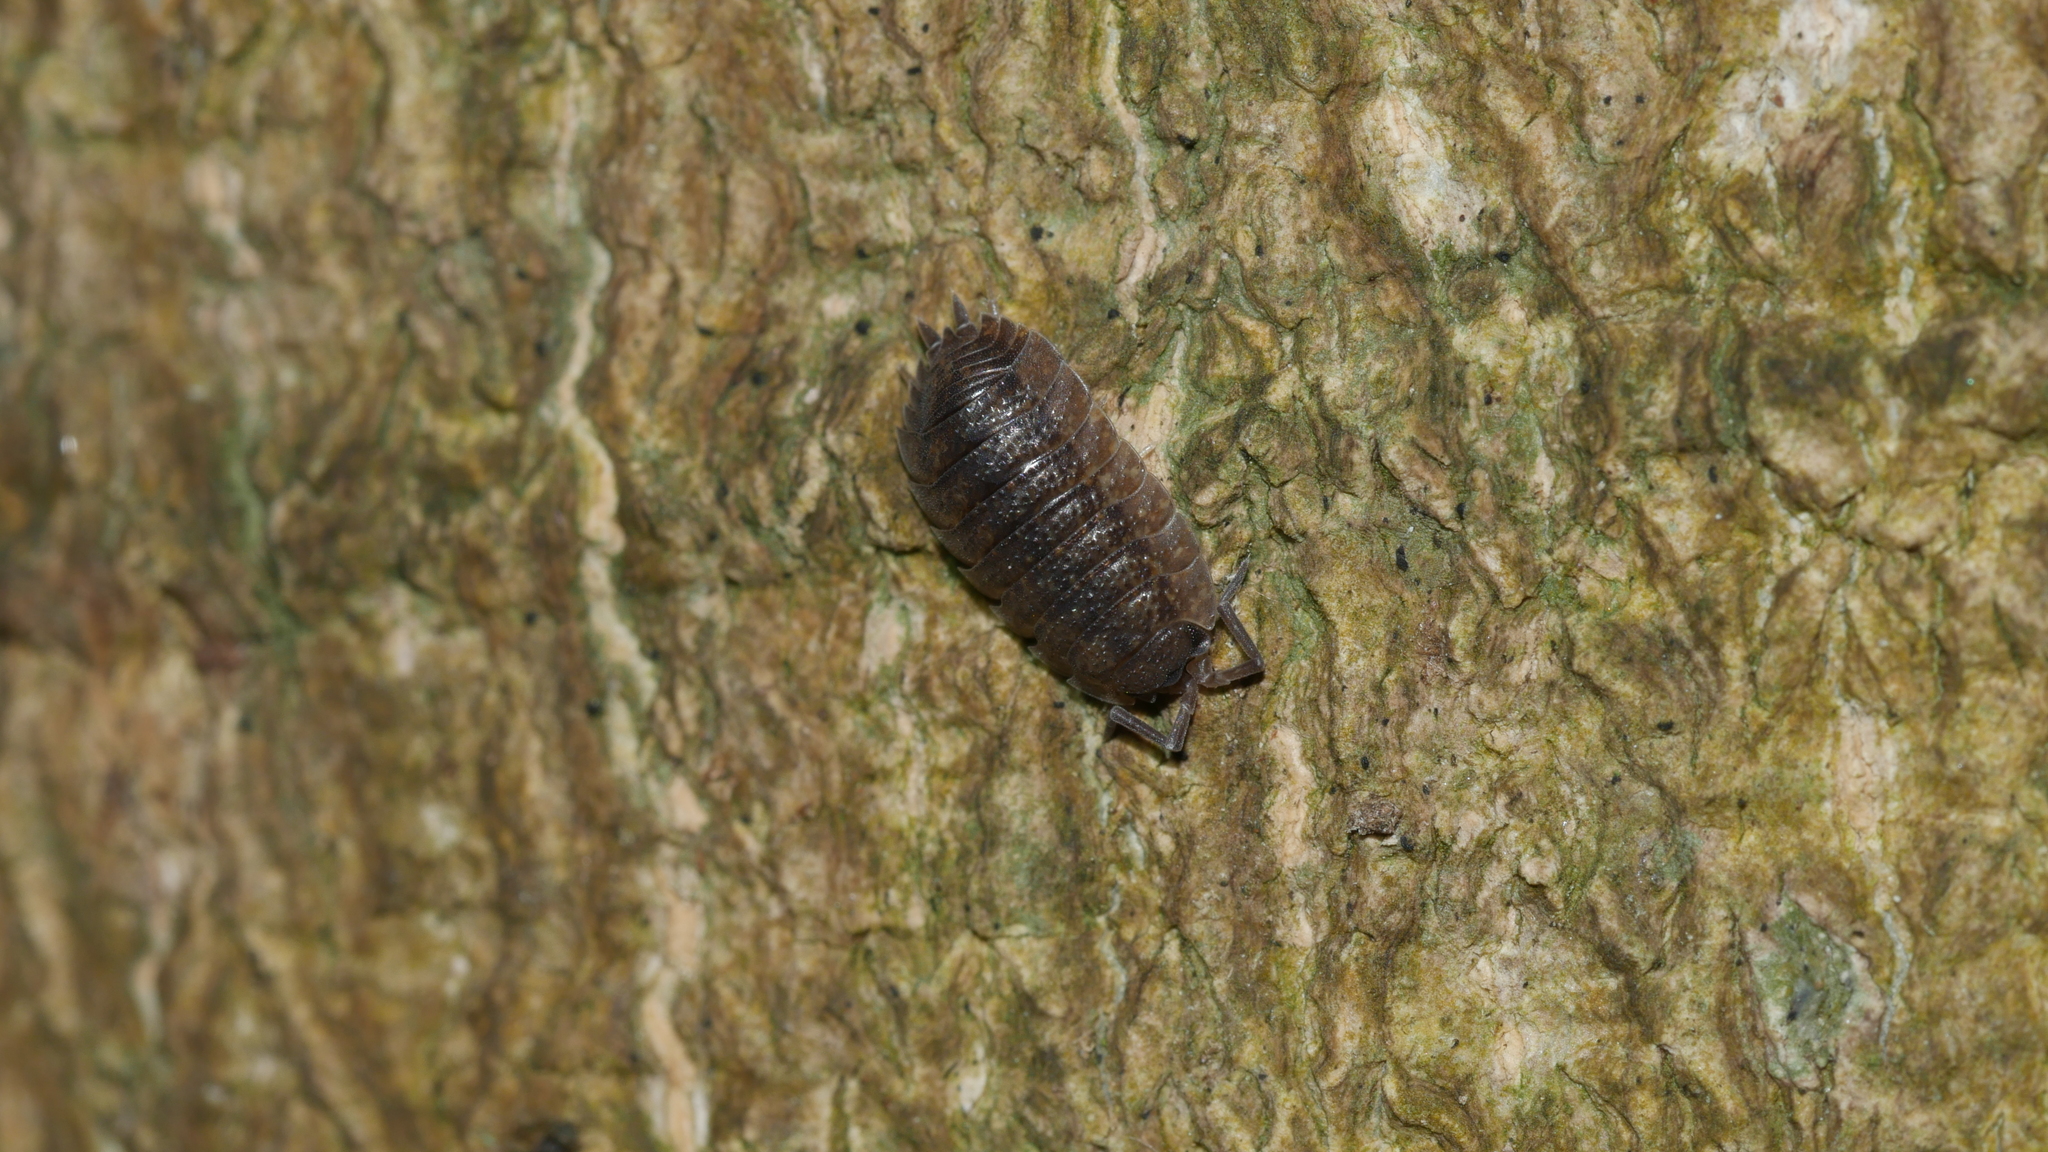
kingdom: Animalia
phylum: Arthropoda
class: Malacostraca
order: Isopoda
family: Porcellionidae
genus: Porcellio
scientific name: Porcellio scaber
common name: Common rough woodlouse
